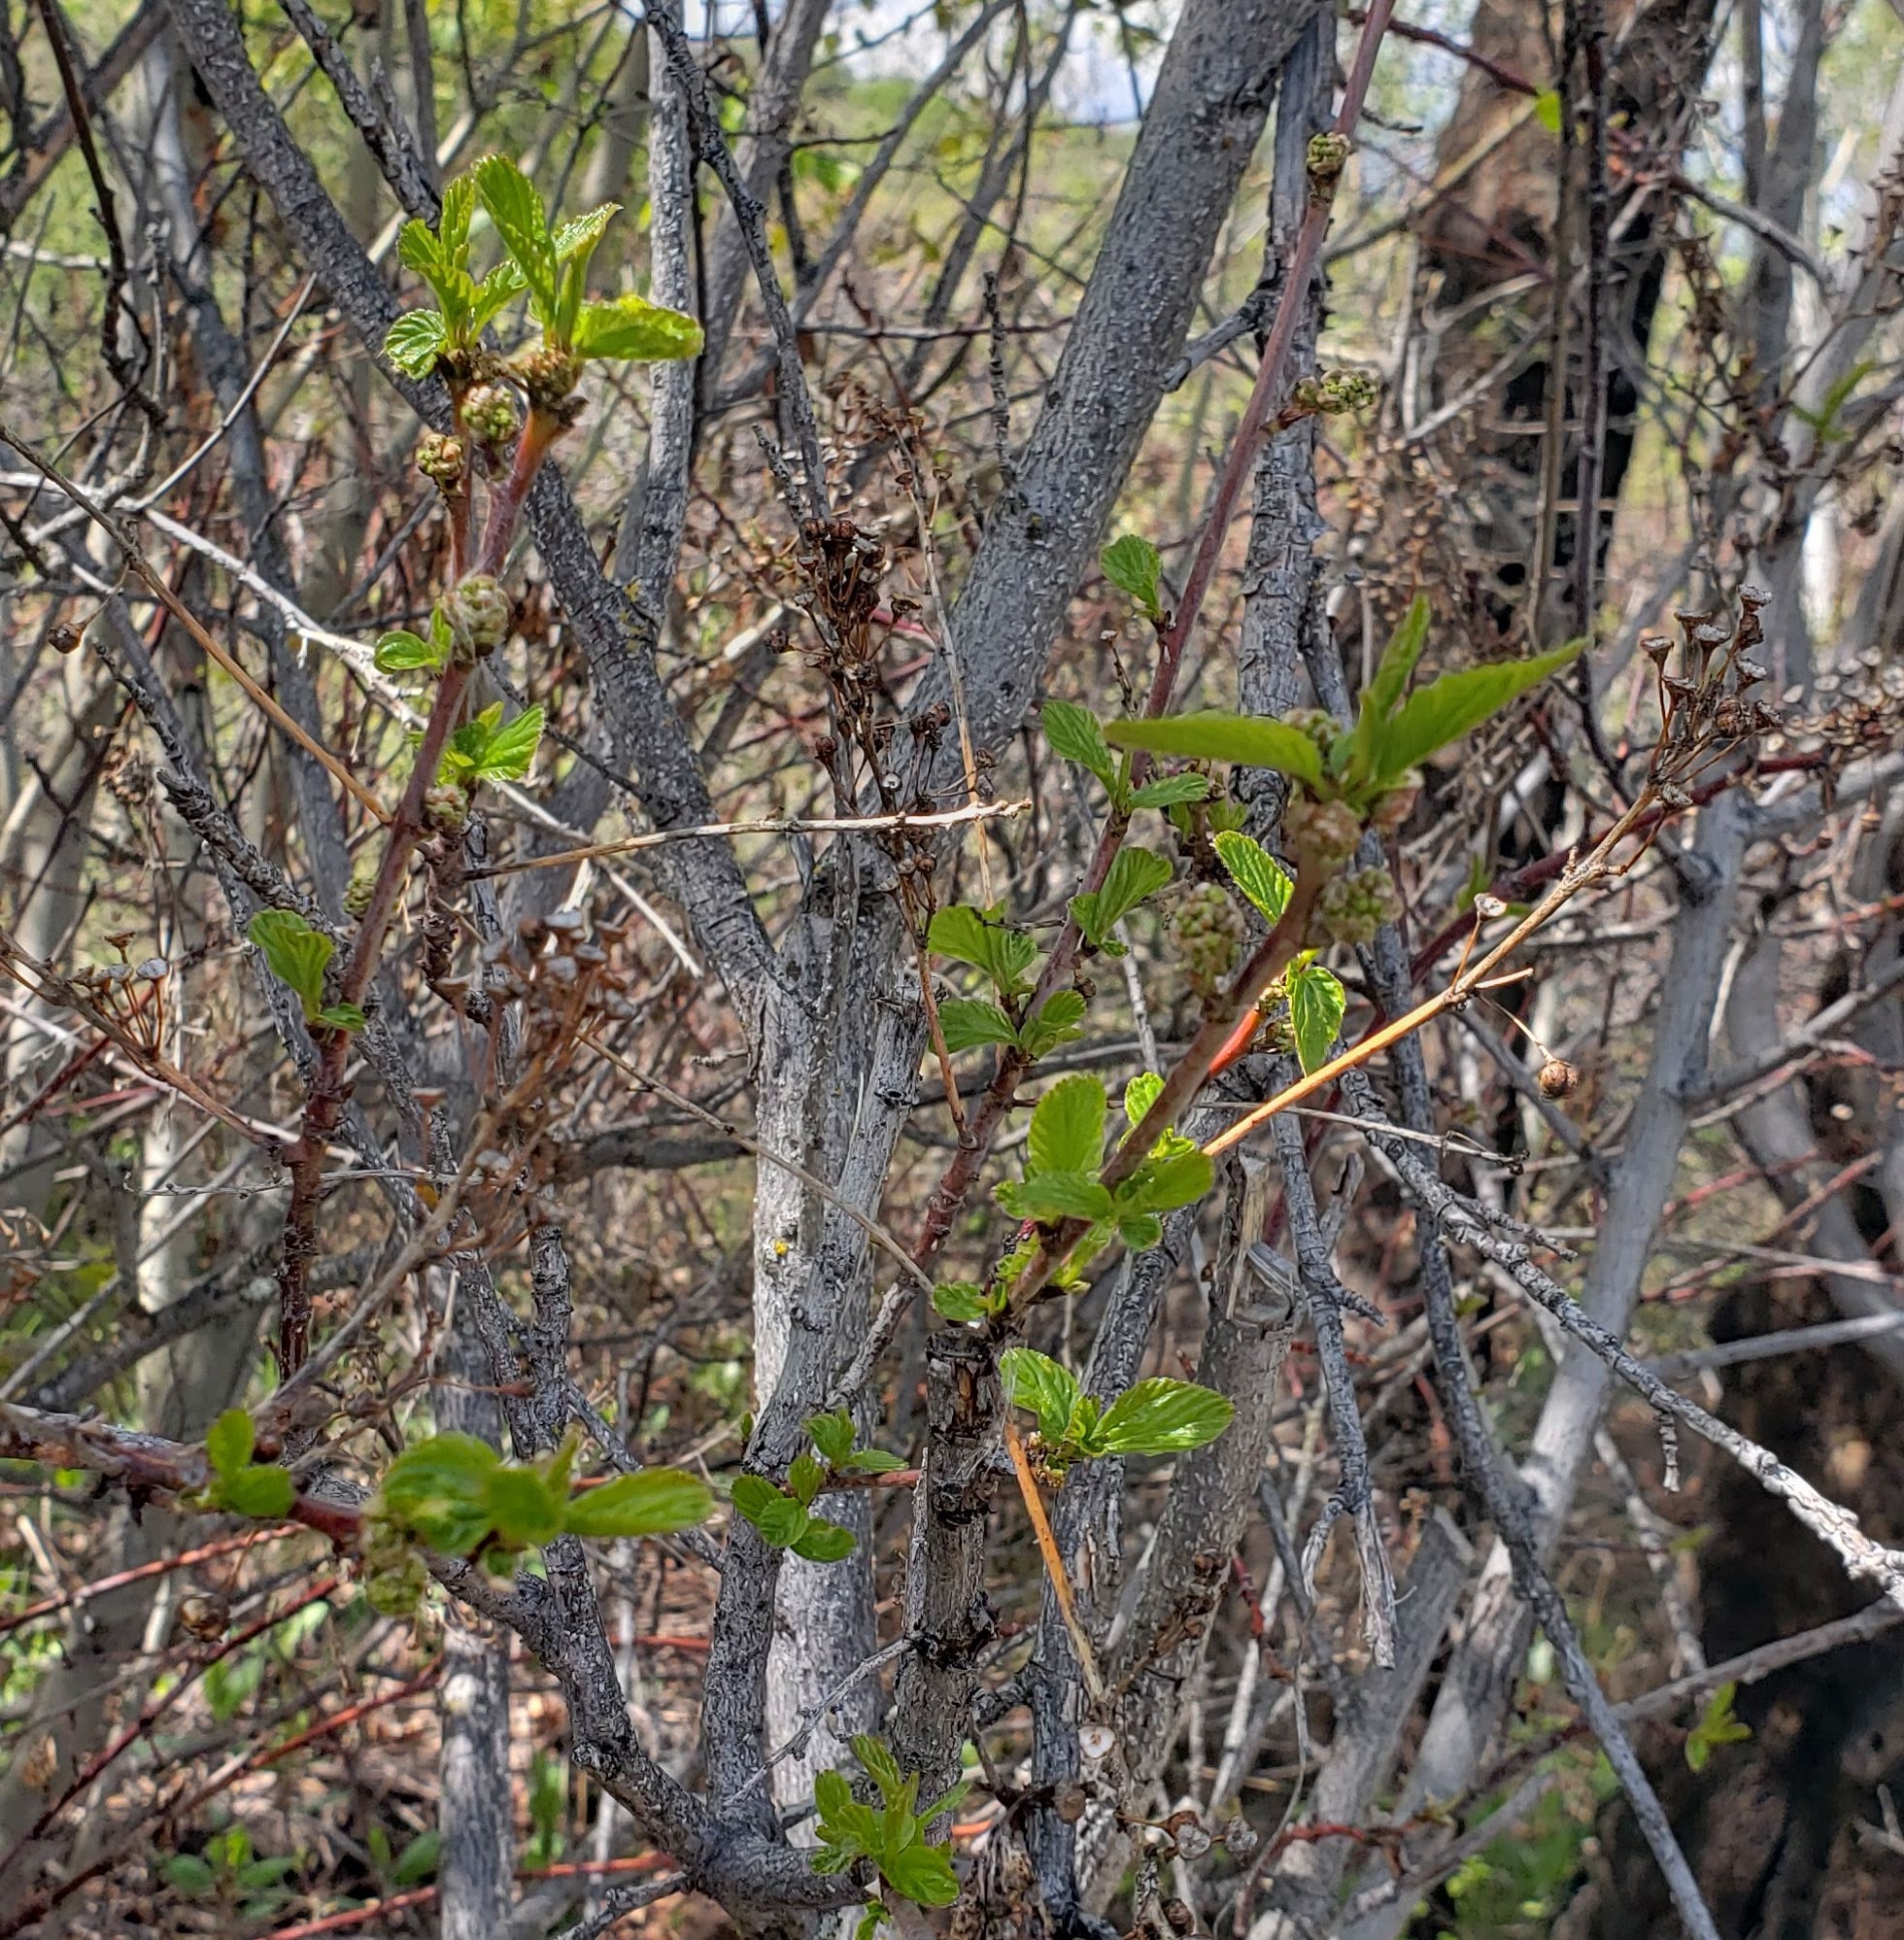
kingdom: Plantae
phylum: Tracheophyta
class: Magnoliopsida
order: Rosales
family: Rhamnaceae
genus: Ceanothus
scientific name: Ceanothus sanguineus
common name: Teatree
